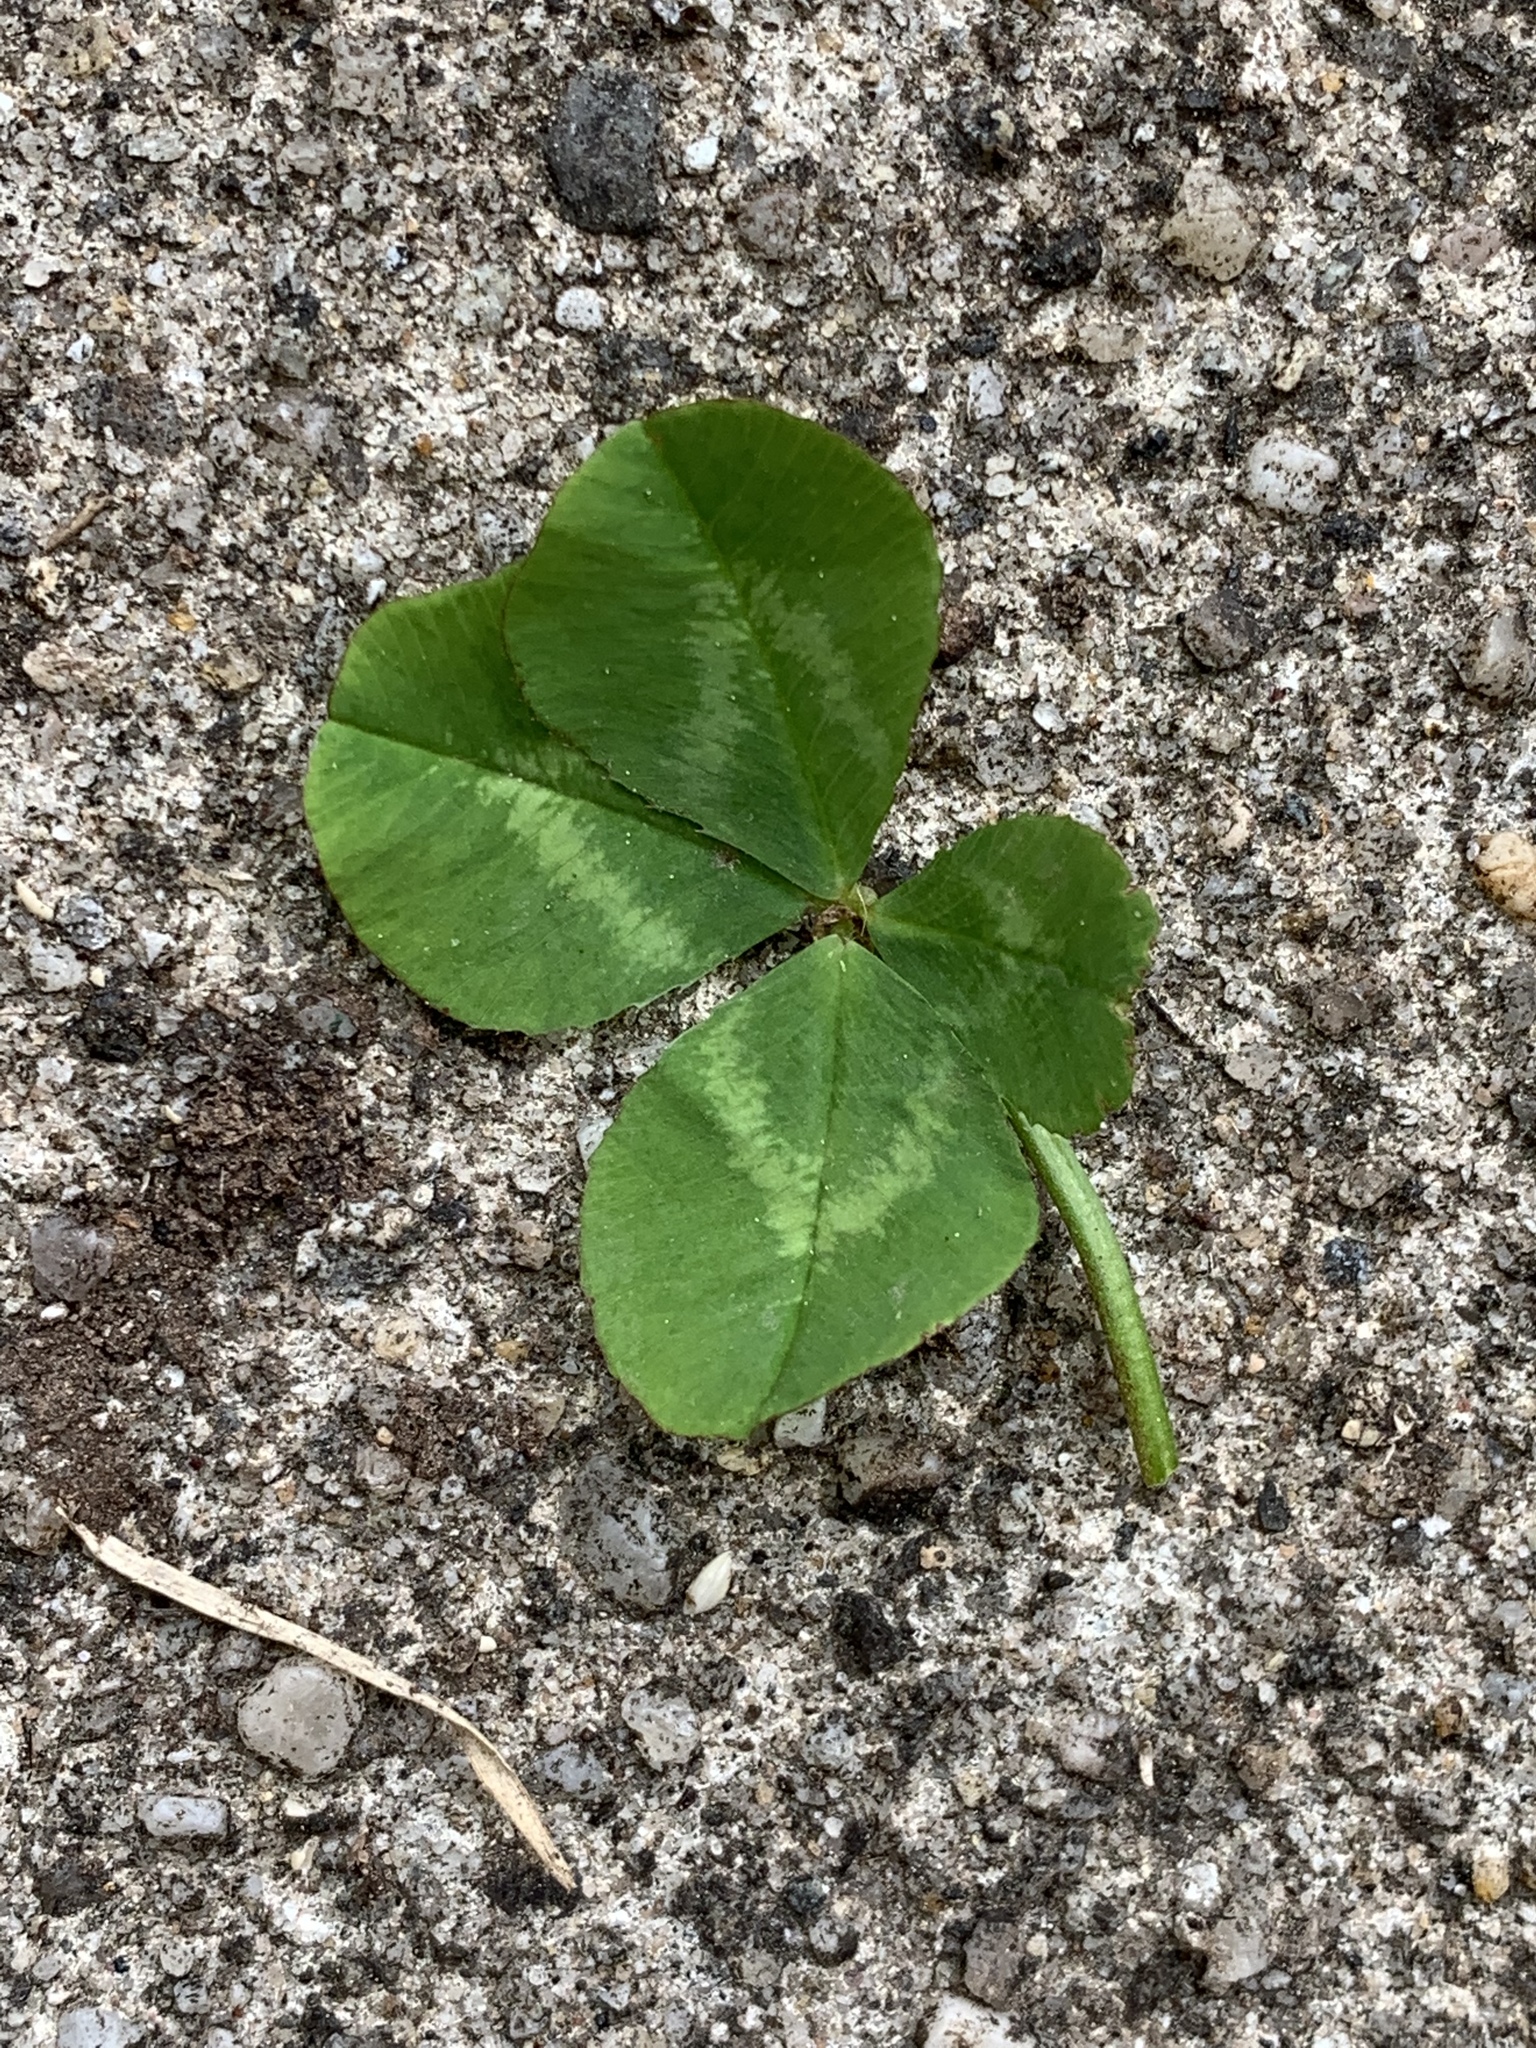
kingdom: Plantae
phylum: Tracheophyta
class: Magnoliopsida
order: Fabales
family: Fabaceae
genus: Trifolium
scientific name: Trifolium repens
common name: White clover
